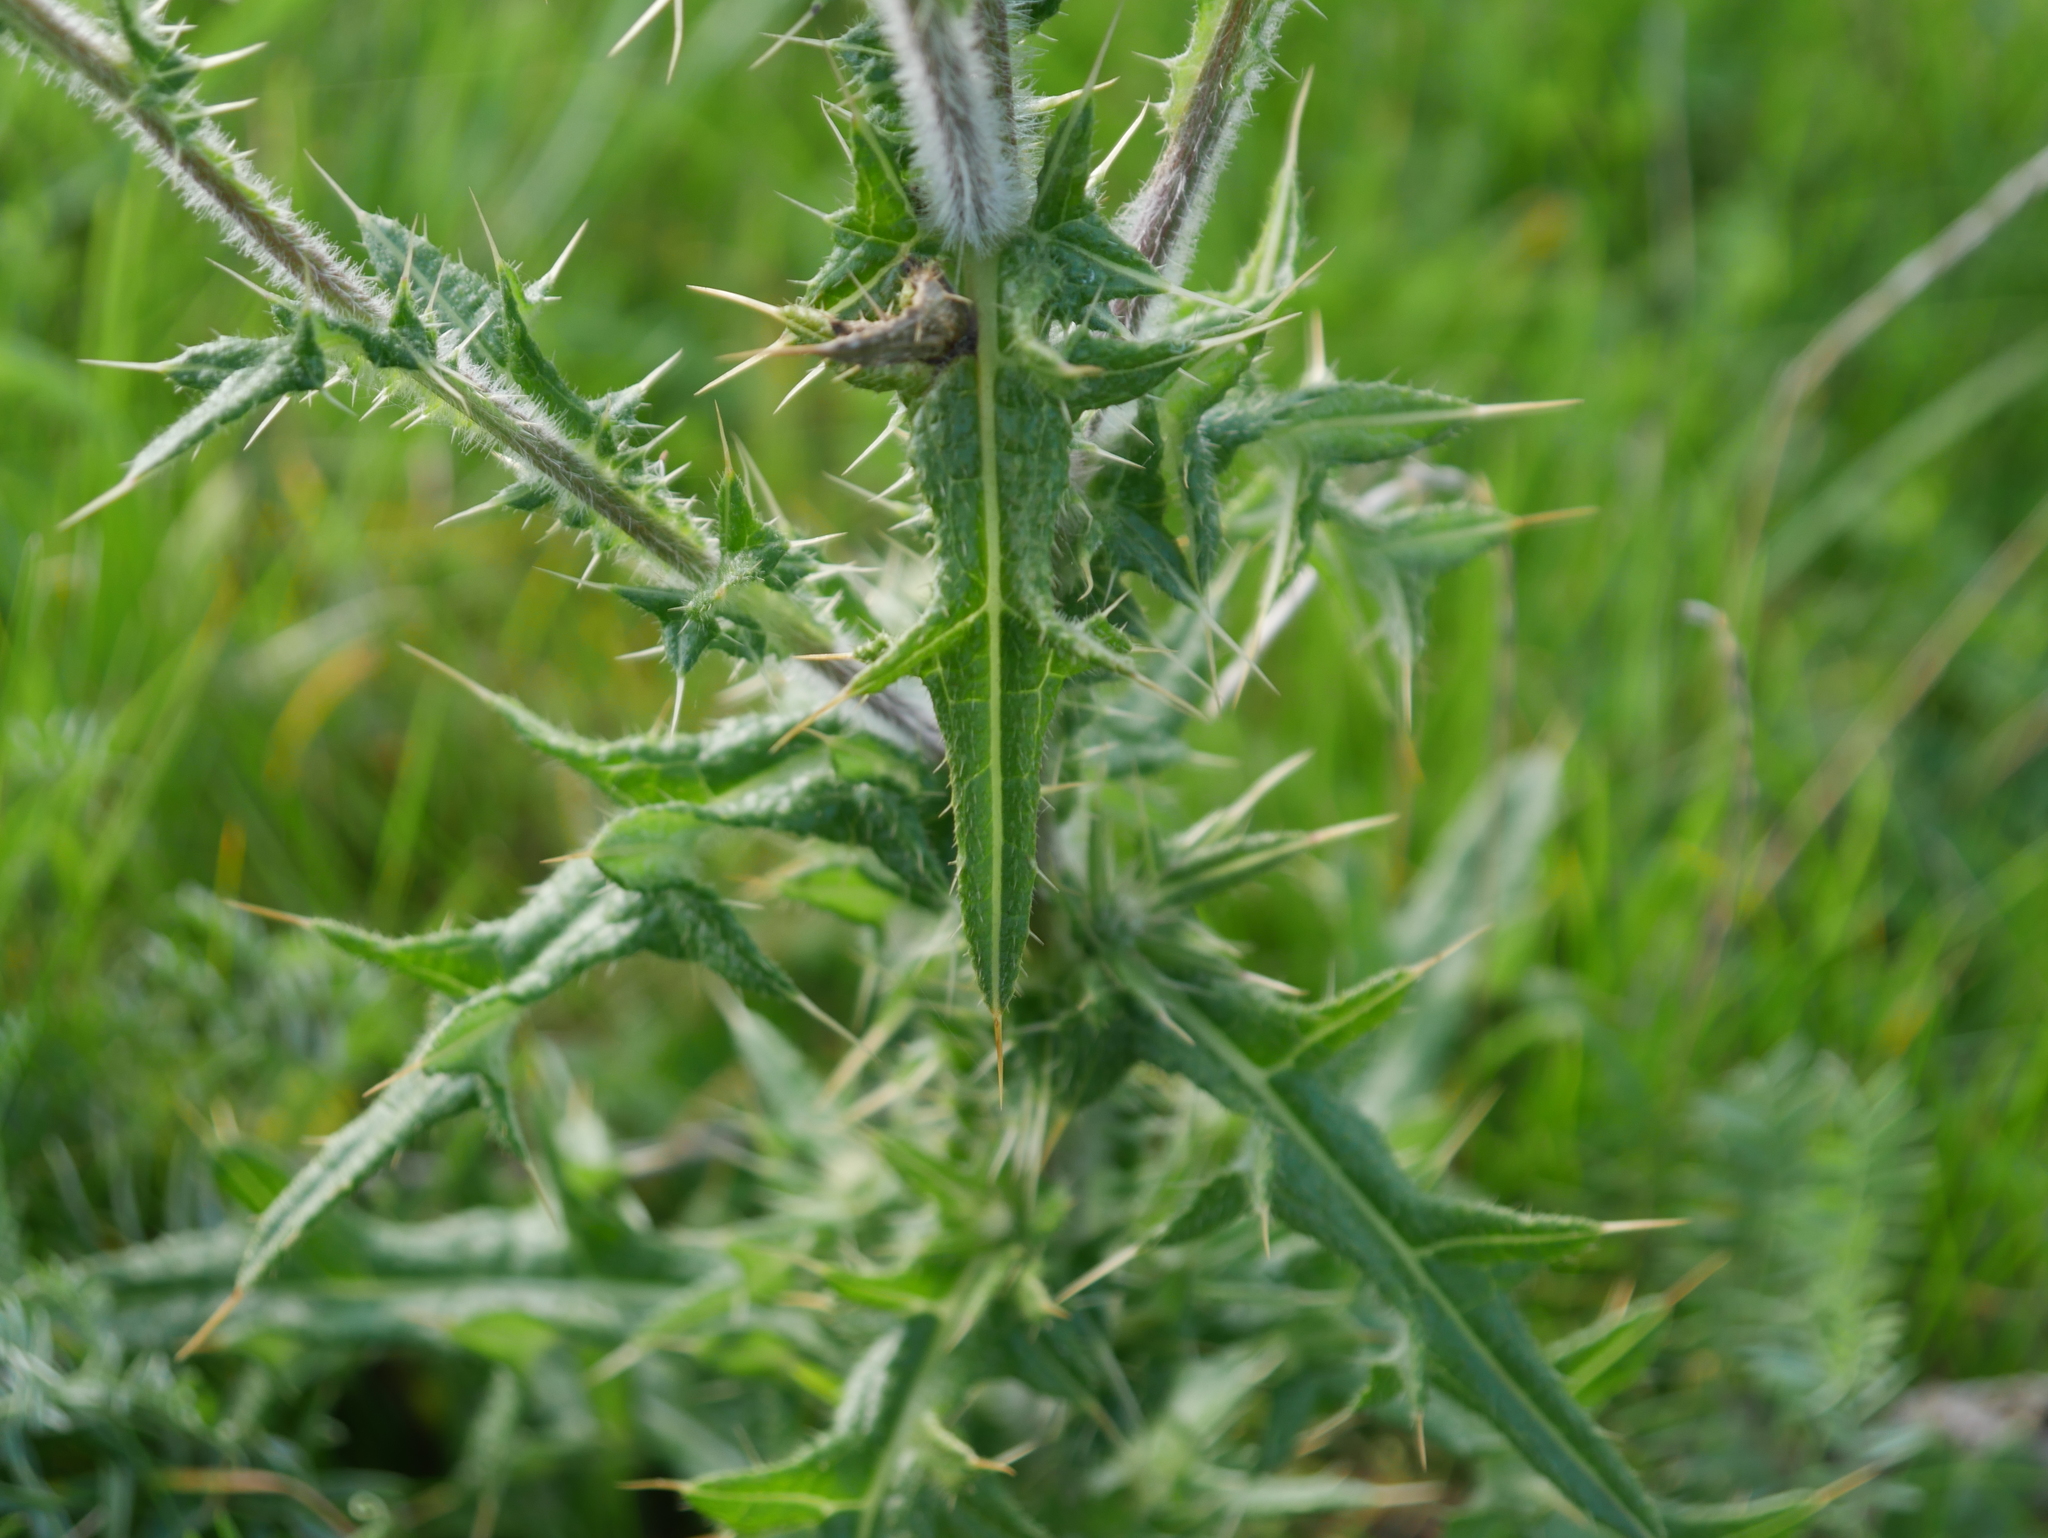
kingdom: Plantae
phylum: Tracheophyta
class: Magnoliopsida
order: Asterales
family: Asteraceae
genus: Cirsium
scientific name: Cirsium vulgare
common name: Bull thistle
